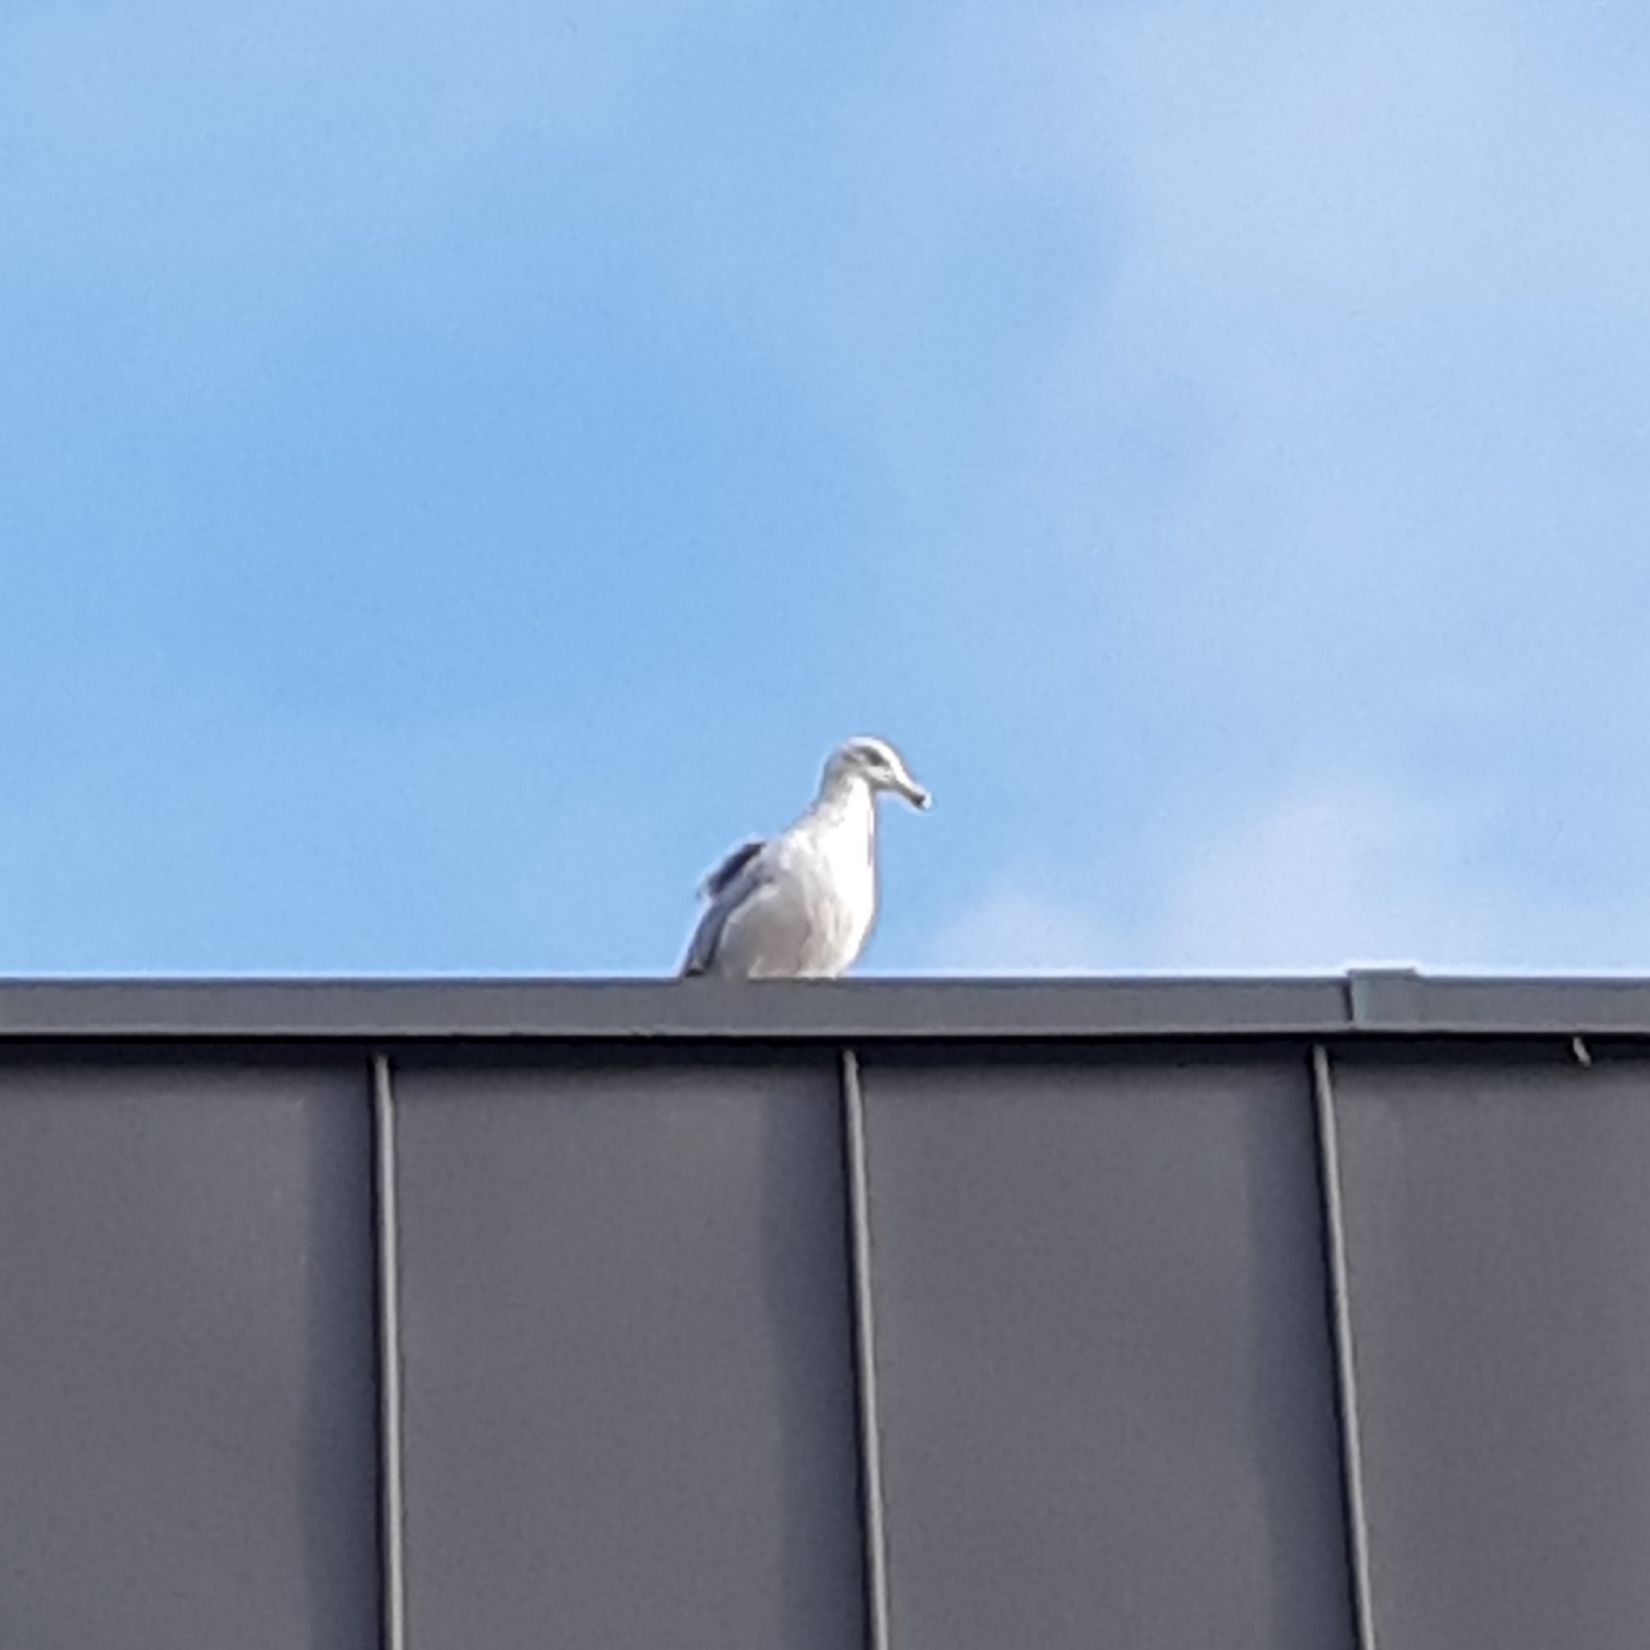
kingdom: Animalia
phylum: Chordata
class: Aves
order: Charadriiformes
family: Laridae
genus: Larus
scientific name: Larus argentatus
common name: Herring gull
